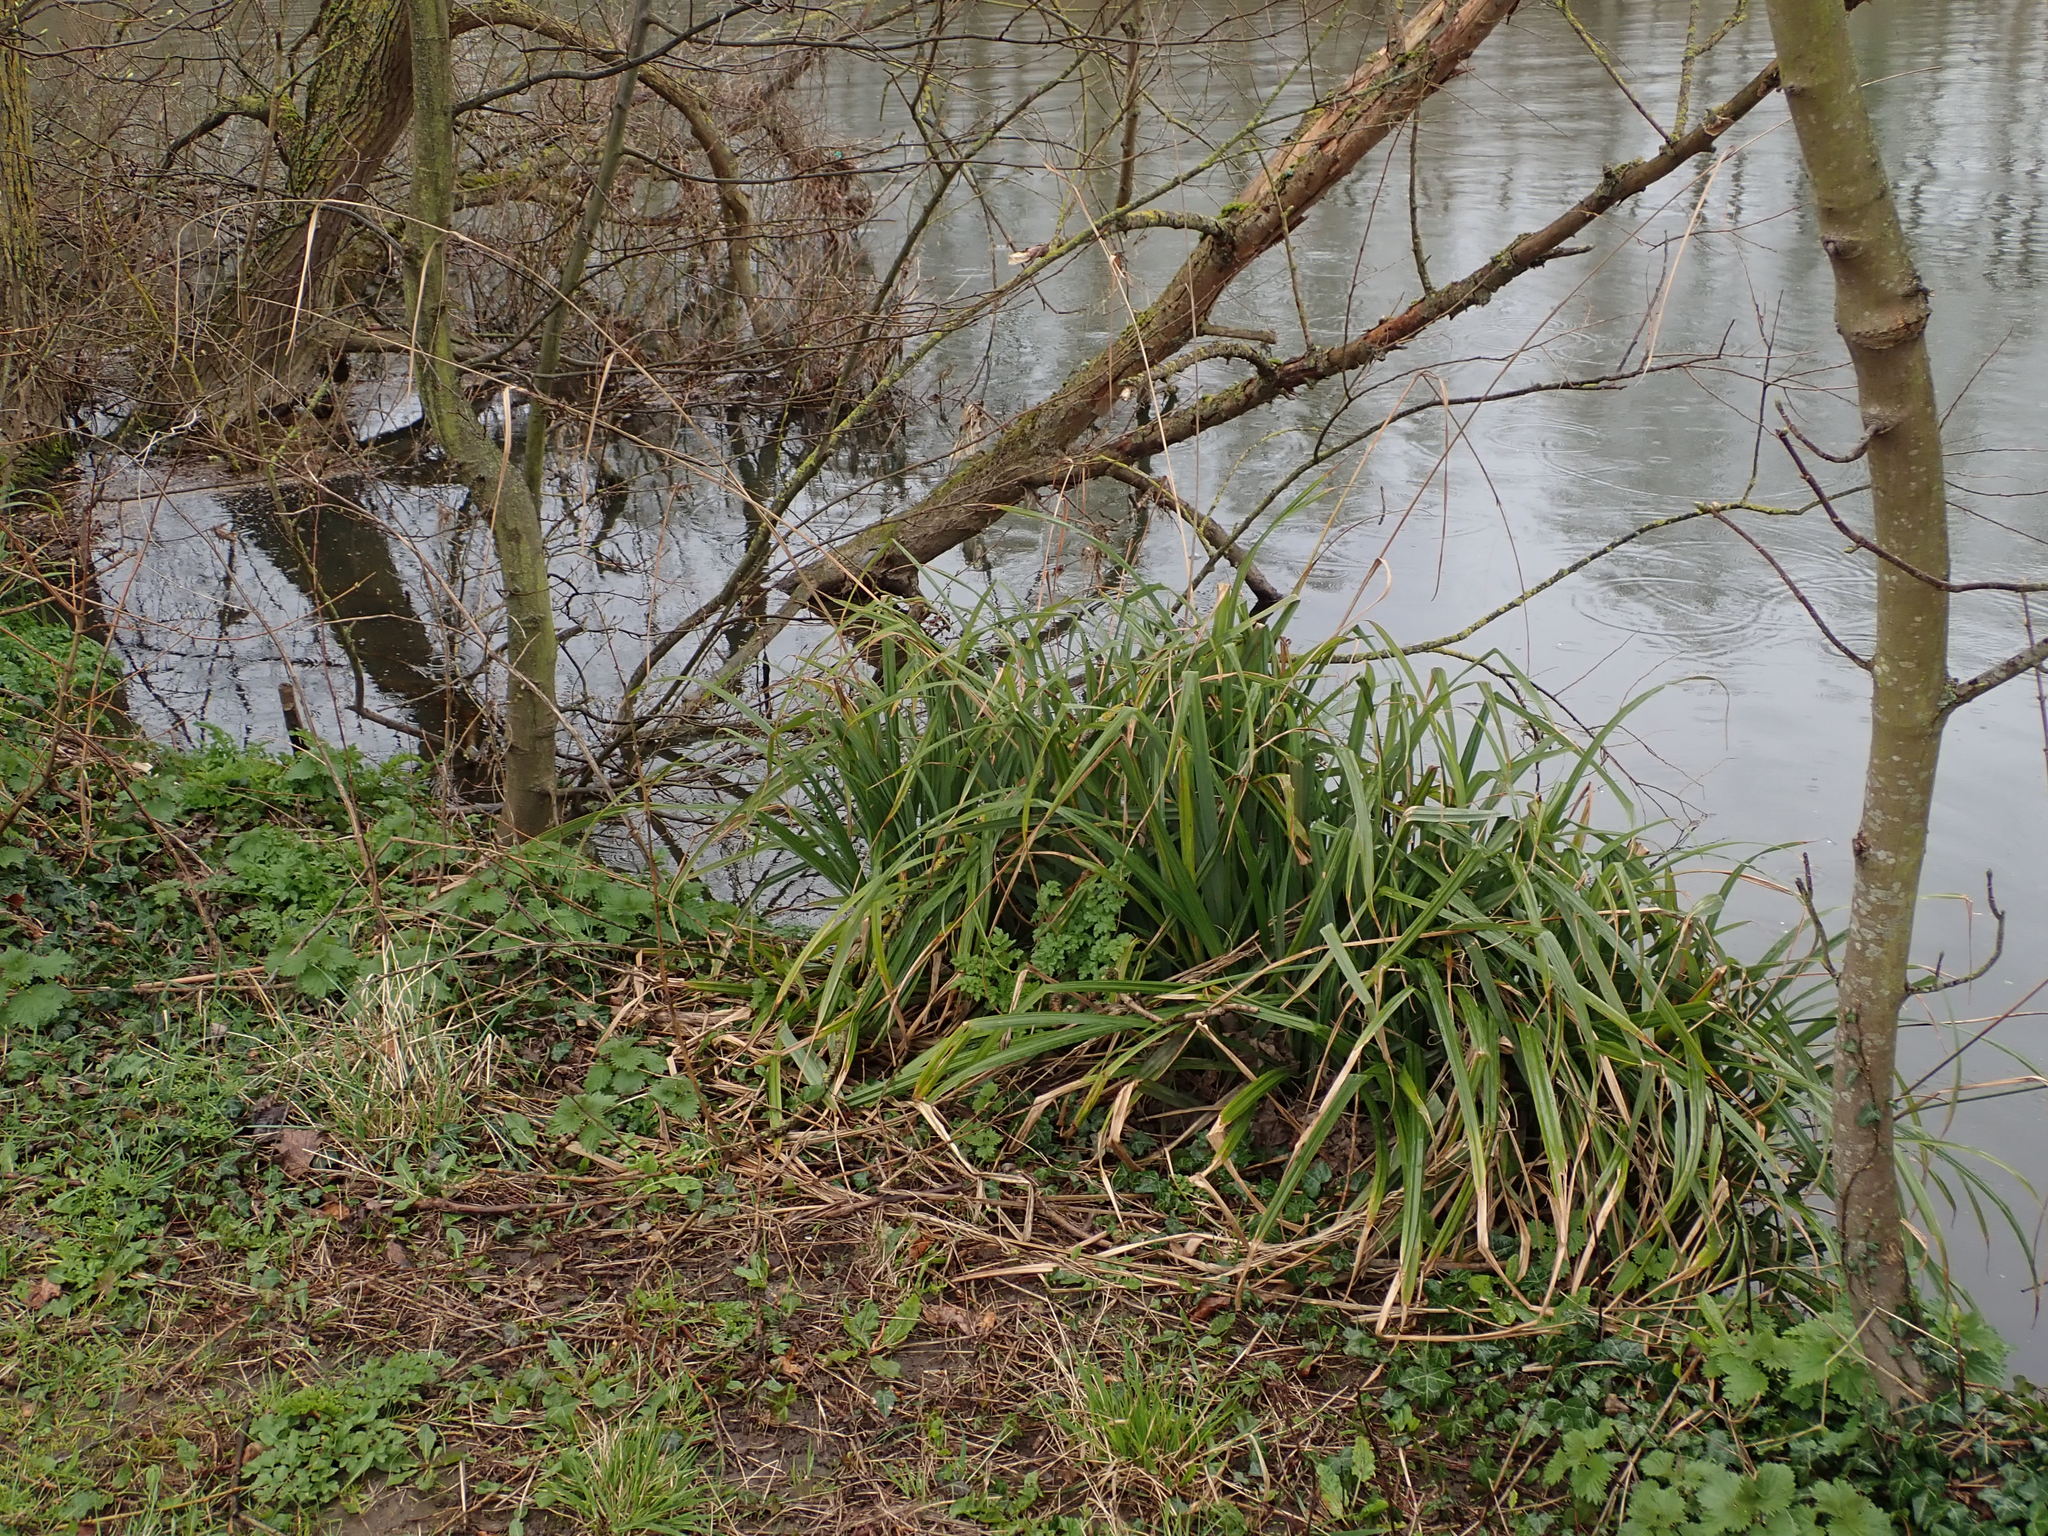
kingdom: Plantae
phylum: Tracheophyta
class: Liliopsida
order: Poales
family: Cyperaceae
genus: Carex
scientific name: Carex pendula
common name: Pendulous sedge
